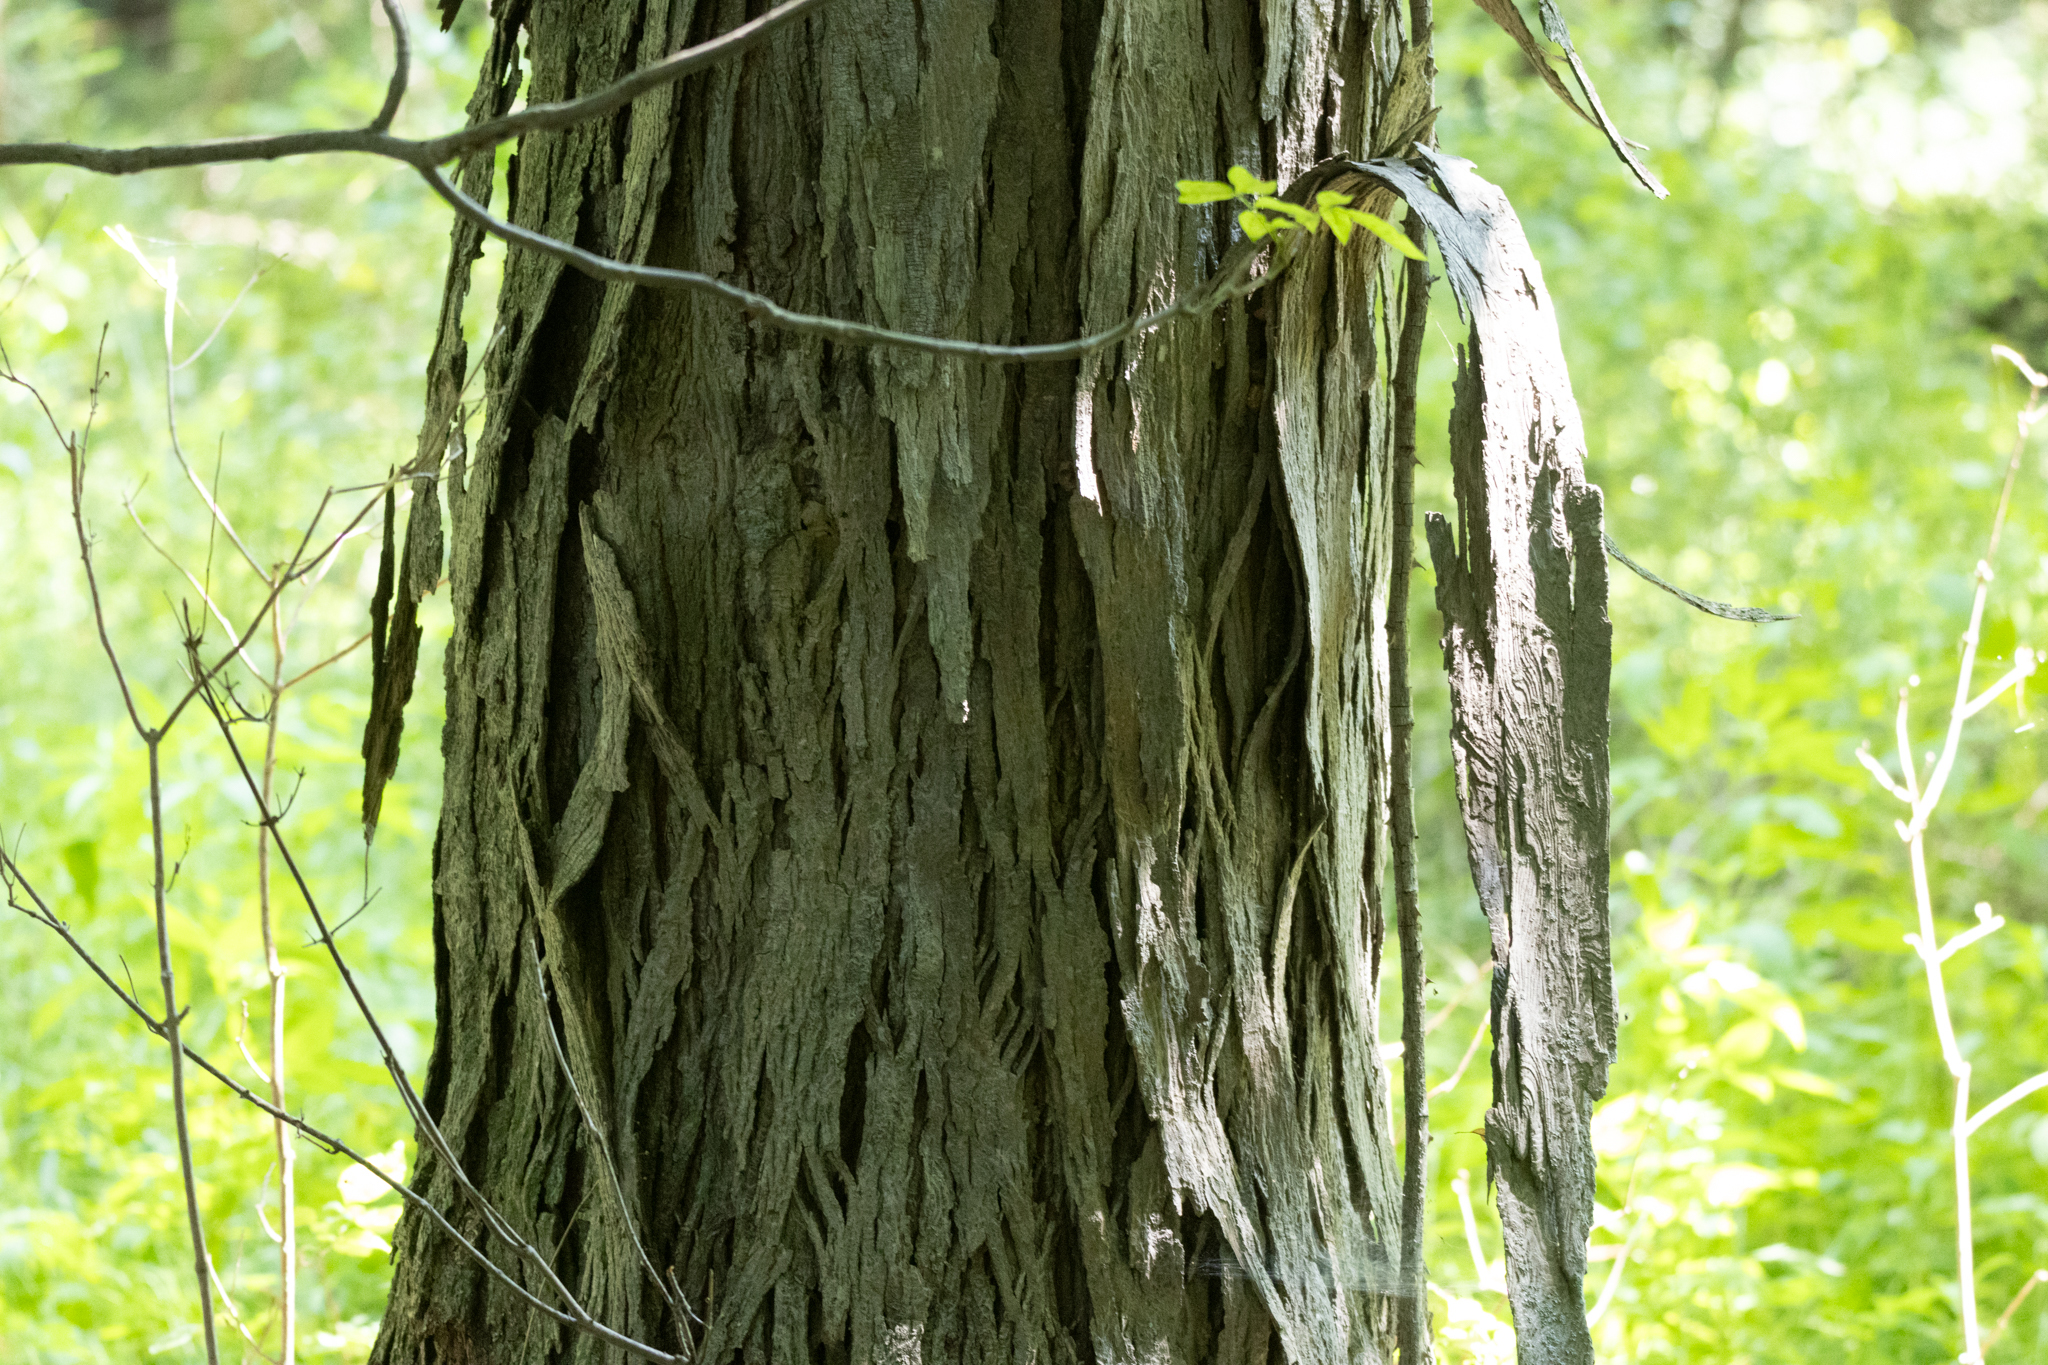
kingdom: Plantae
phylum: Tracheophyta
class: Magnoliopsida
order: Fagales
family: Juglandaceae
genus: Carya
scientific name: Carya ovata
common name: Shagbark hickory
